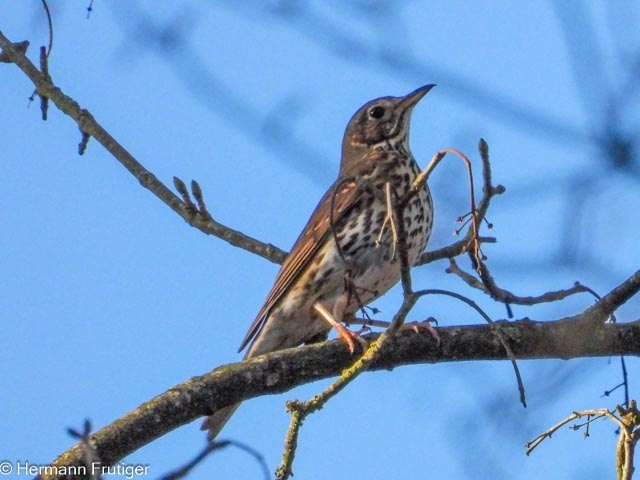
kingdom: Animalia
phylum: Chordata
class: Aves
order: Passeriformes
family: Turdidae
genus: Turdus
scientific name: Turdus philomelos
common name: Song thrush
